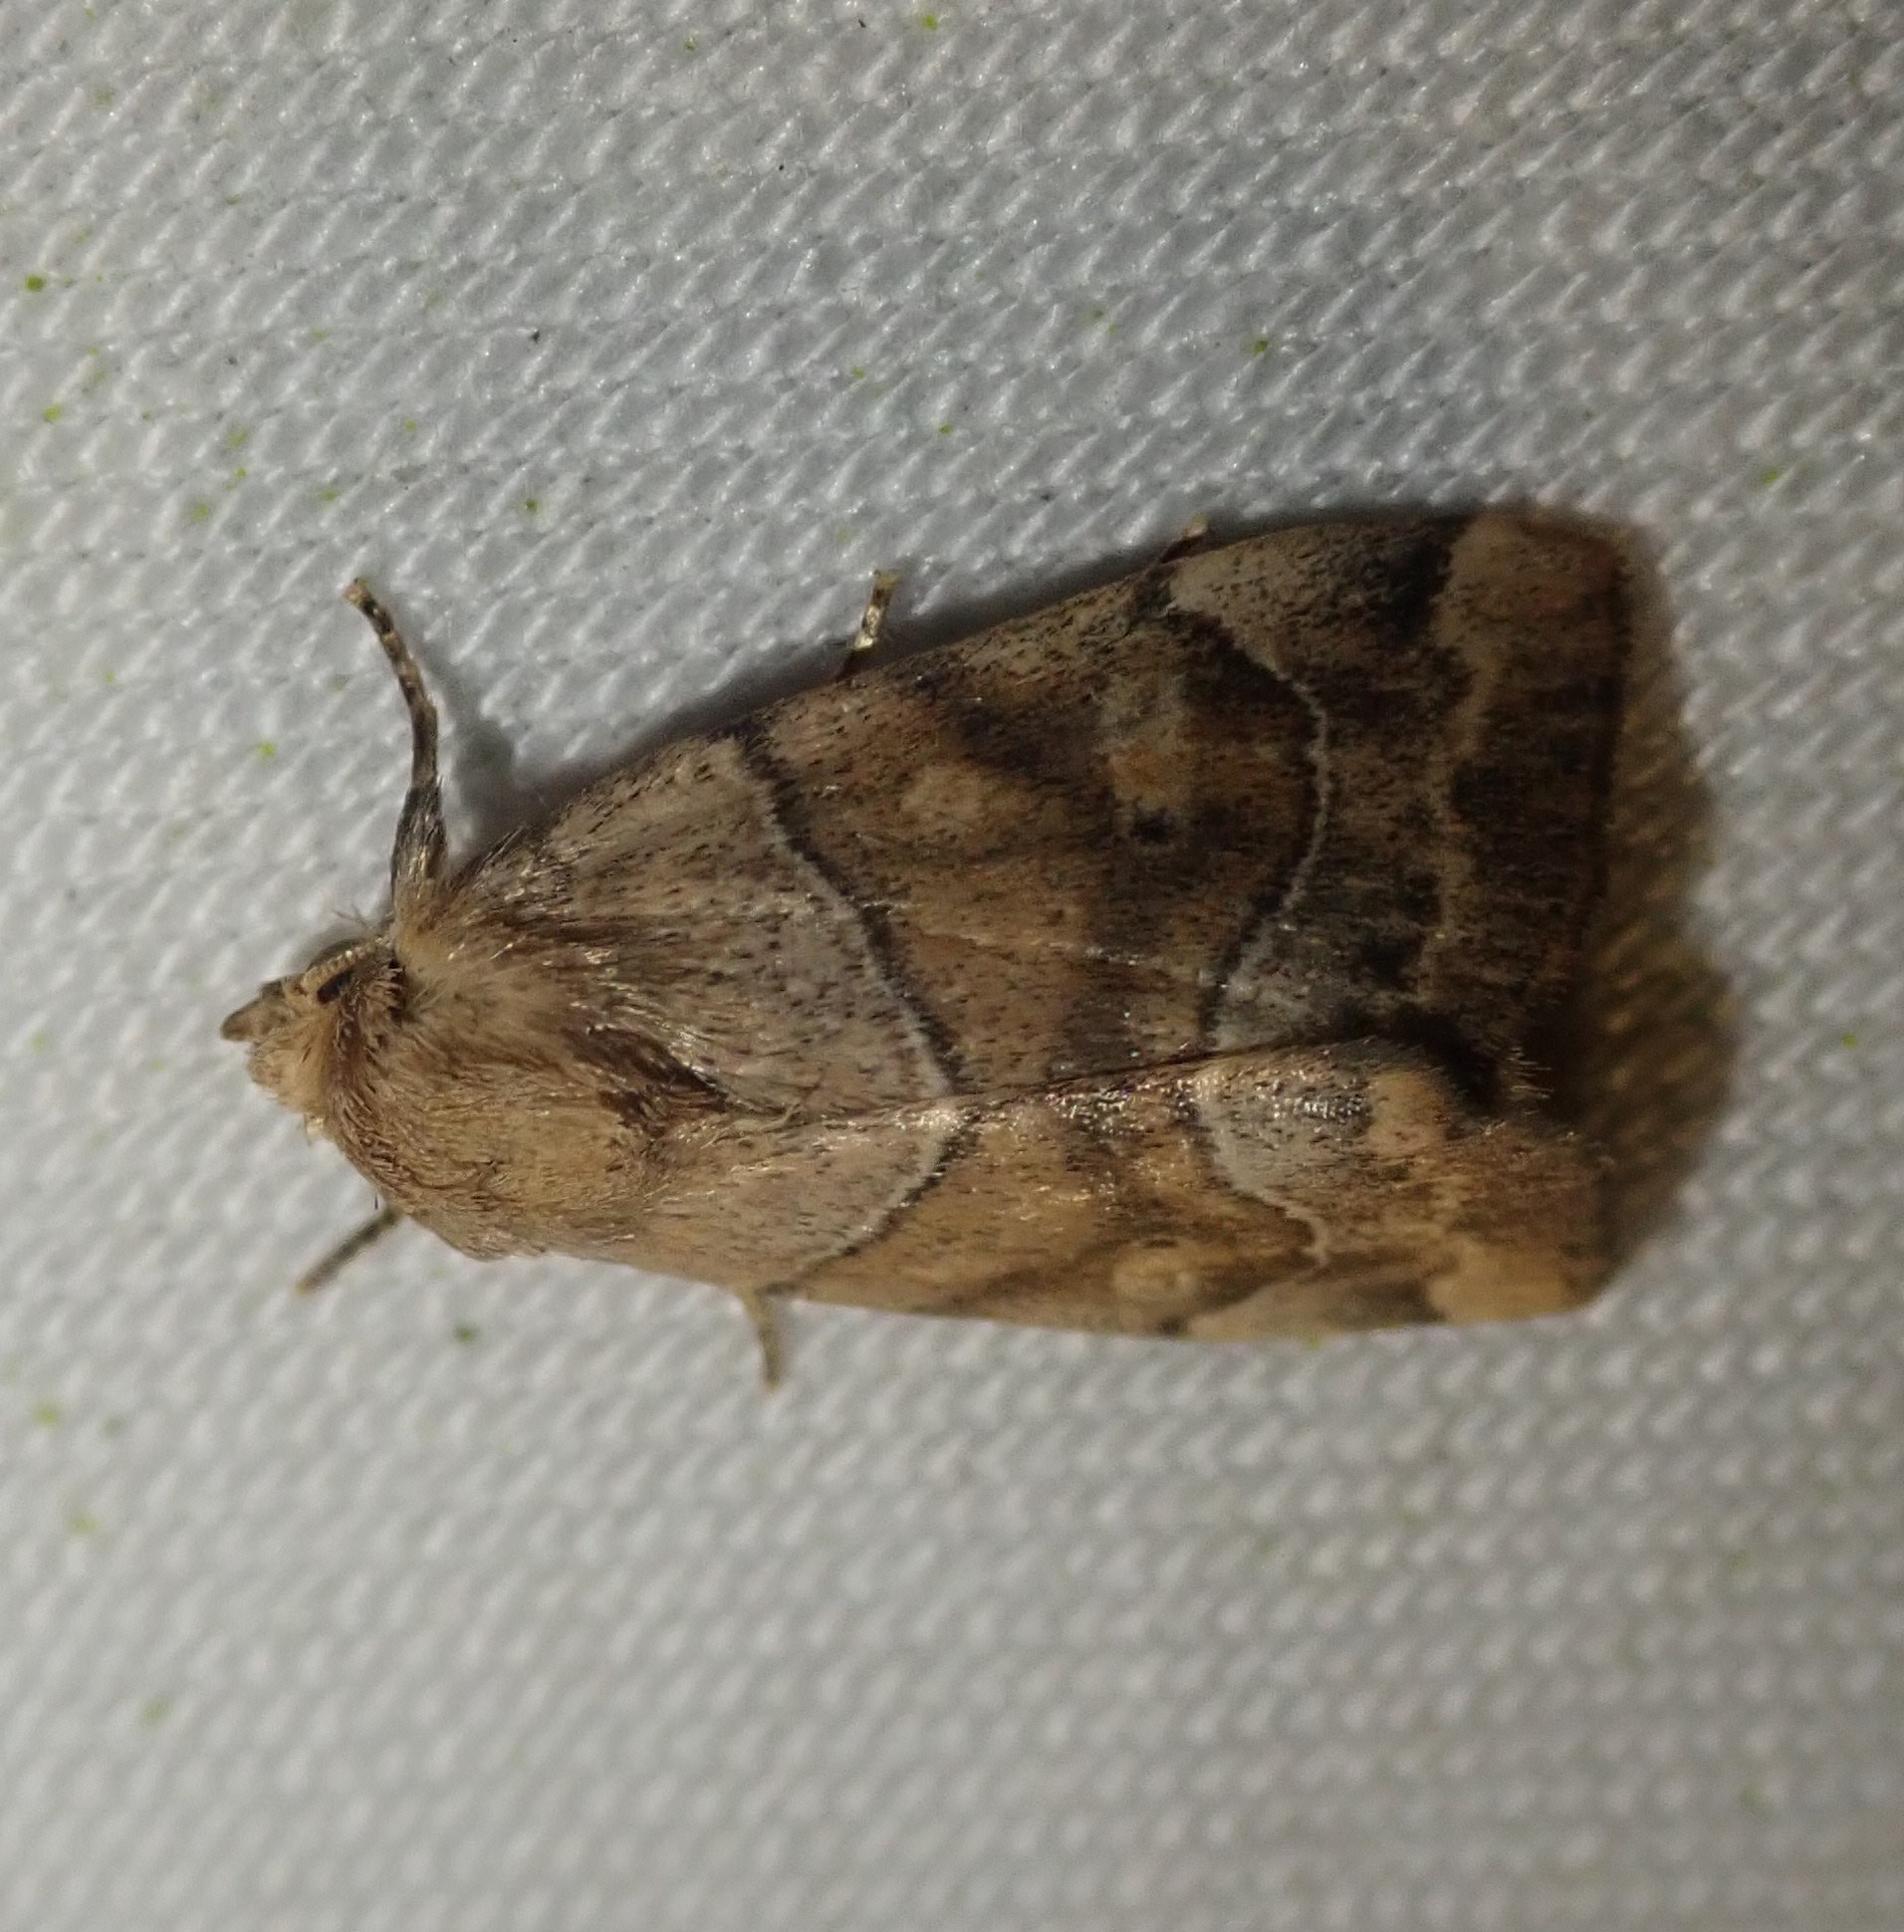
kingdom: Animalia
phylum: Arthropoda
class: Insecta
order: Lepidoptera
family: Noctuidae
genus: Cosmia
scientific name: Cosmia trapezina
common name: Dun-bar
